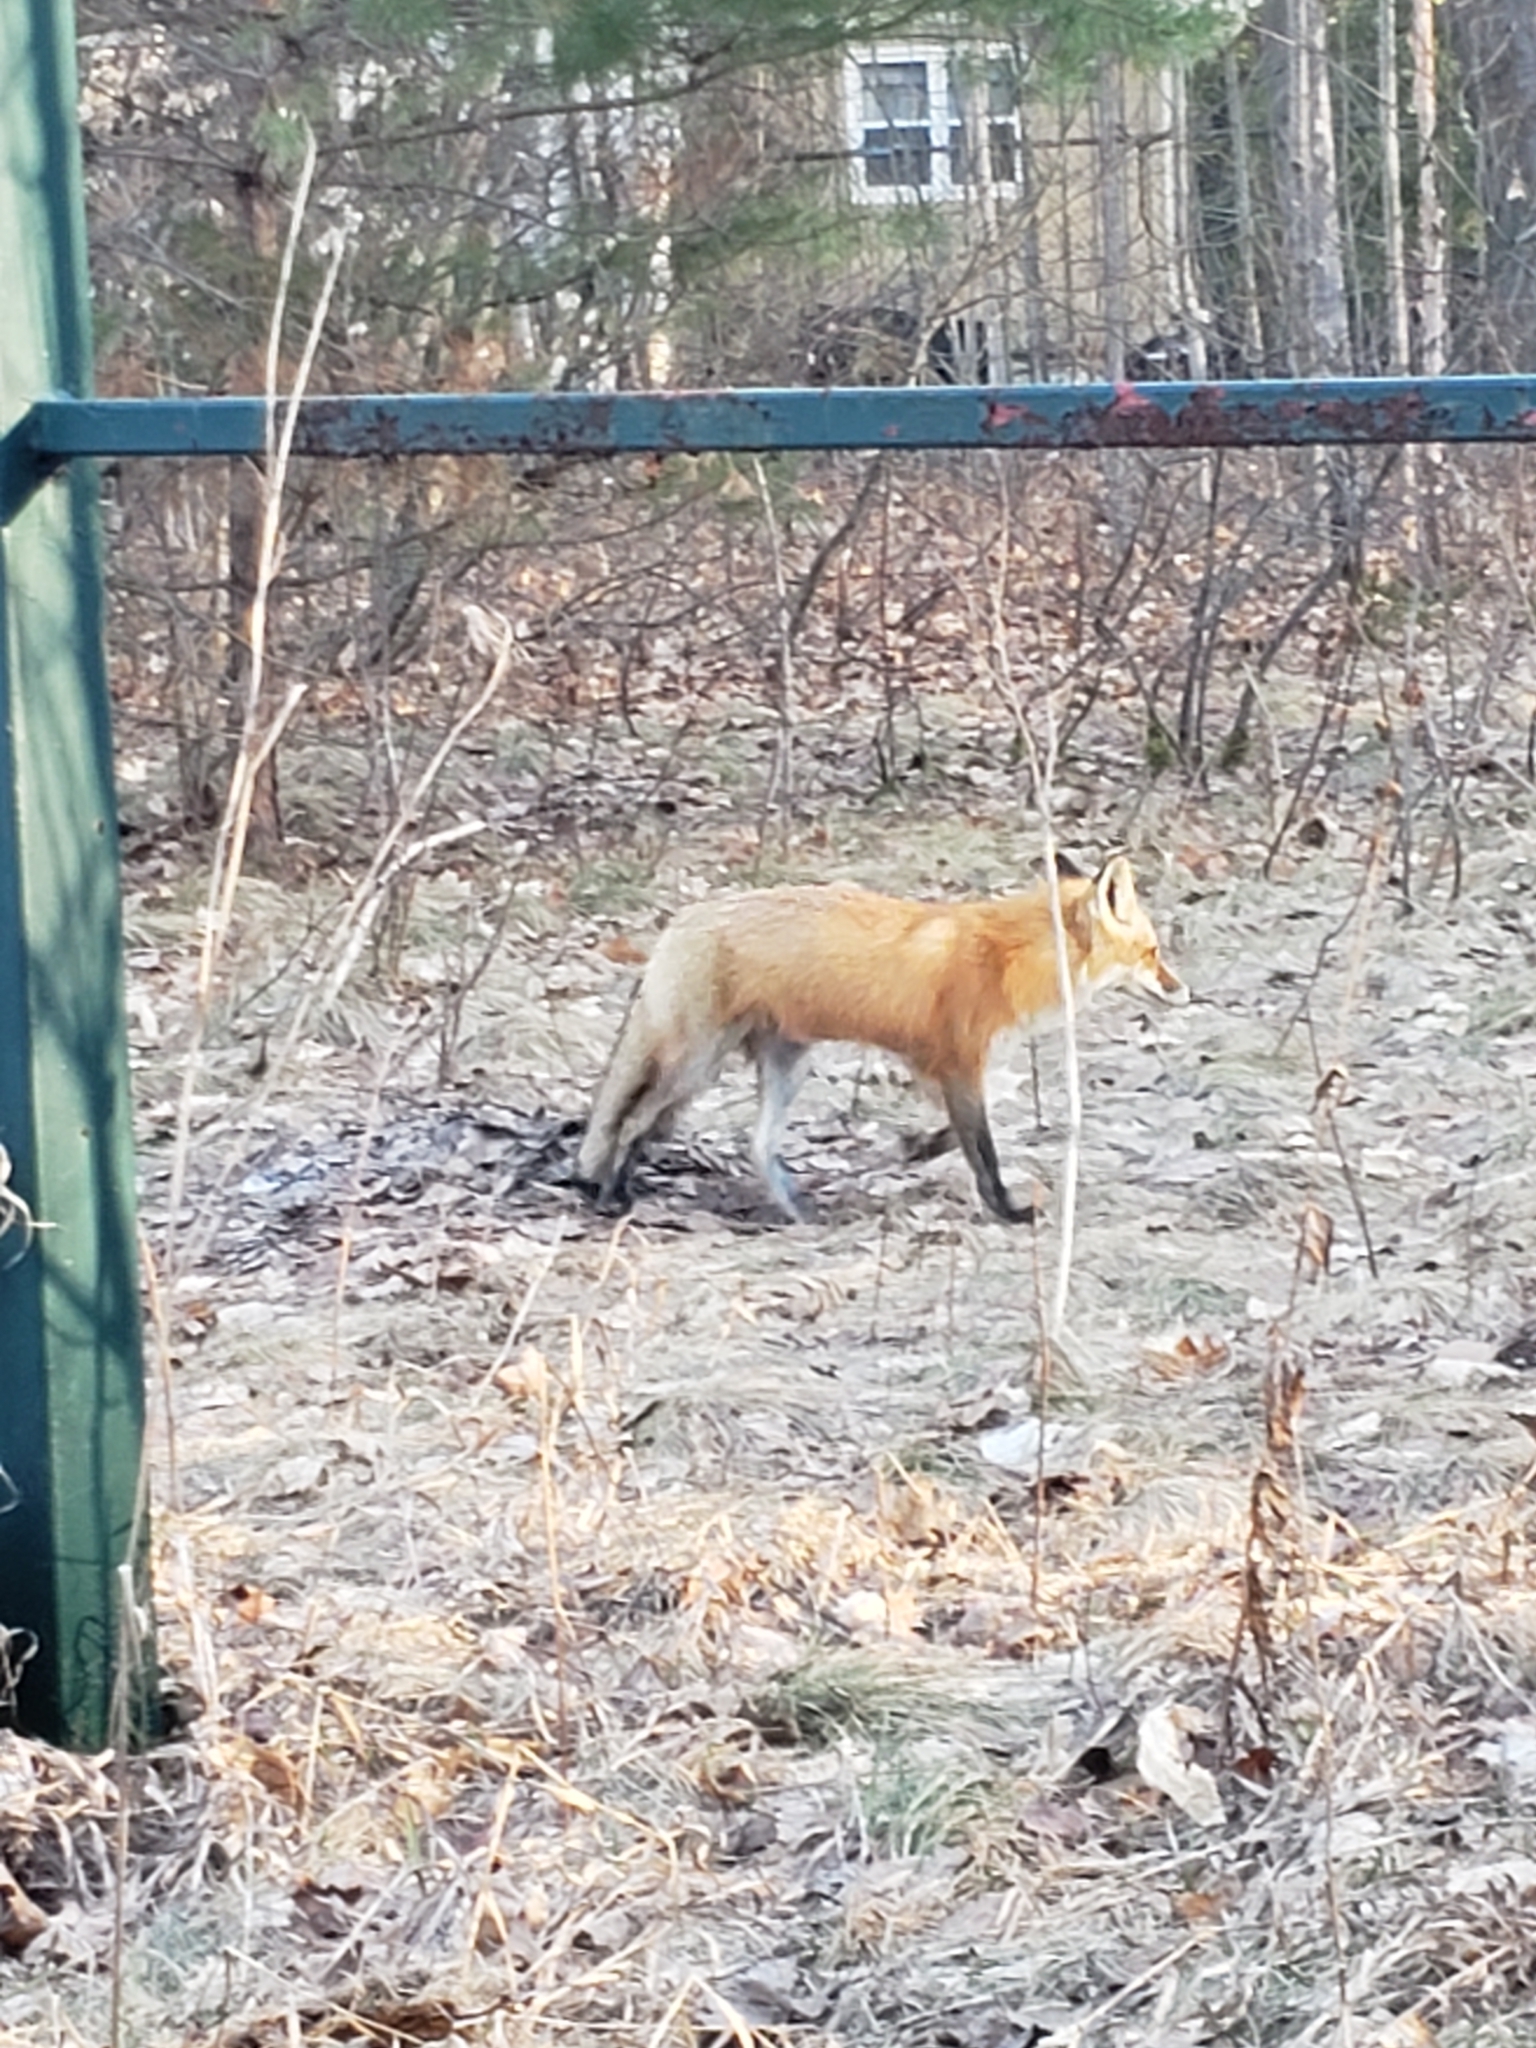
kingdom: Animalia
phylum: Chordata
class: Mammalia
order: Carnivora
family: Canidae
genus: Vulpes
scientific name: Vulpes vulpes
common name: Red fox
